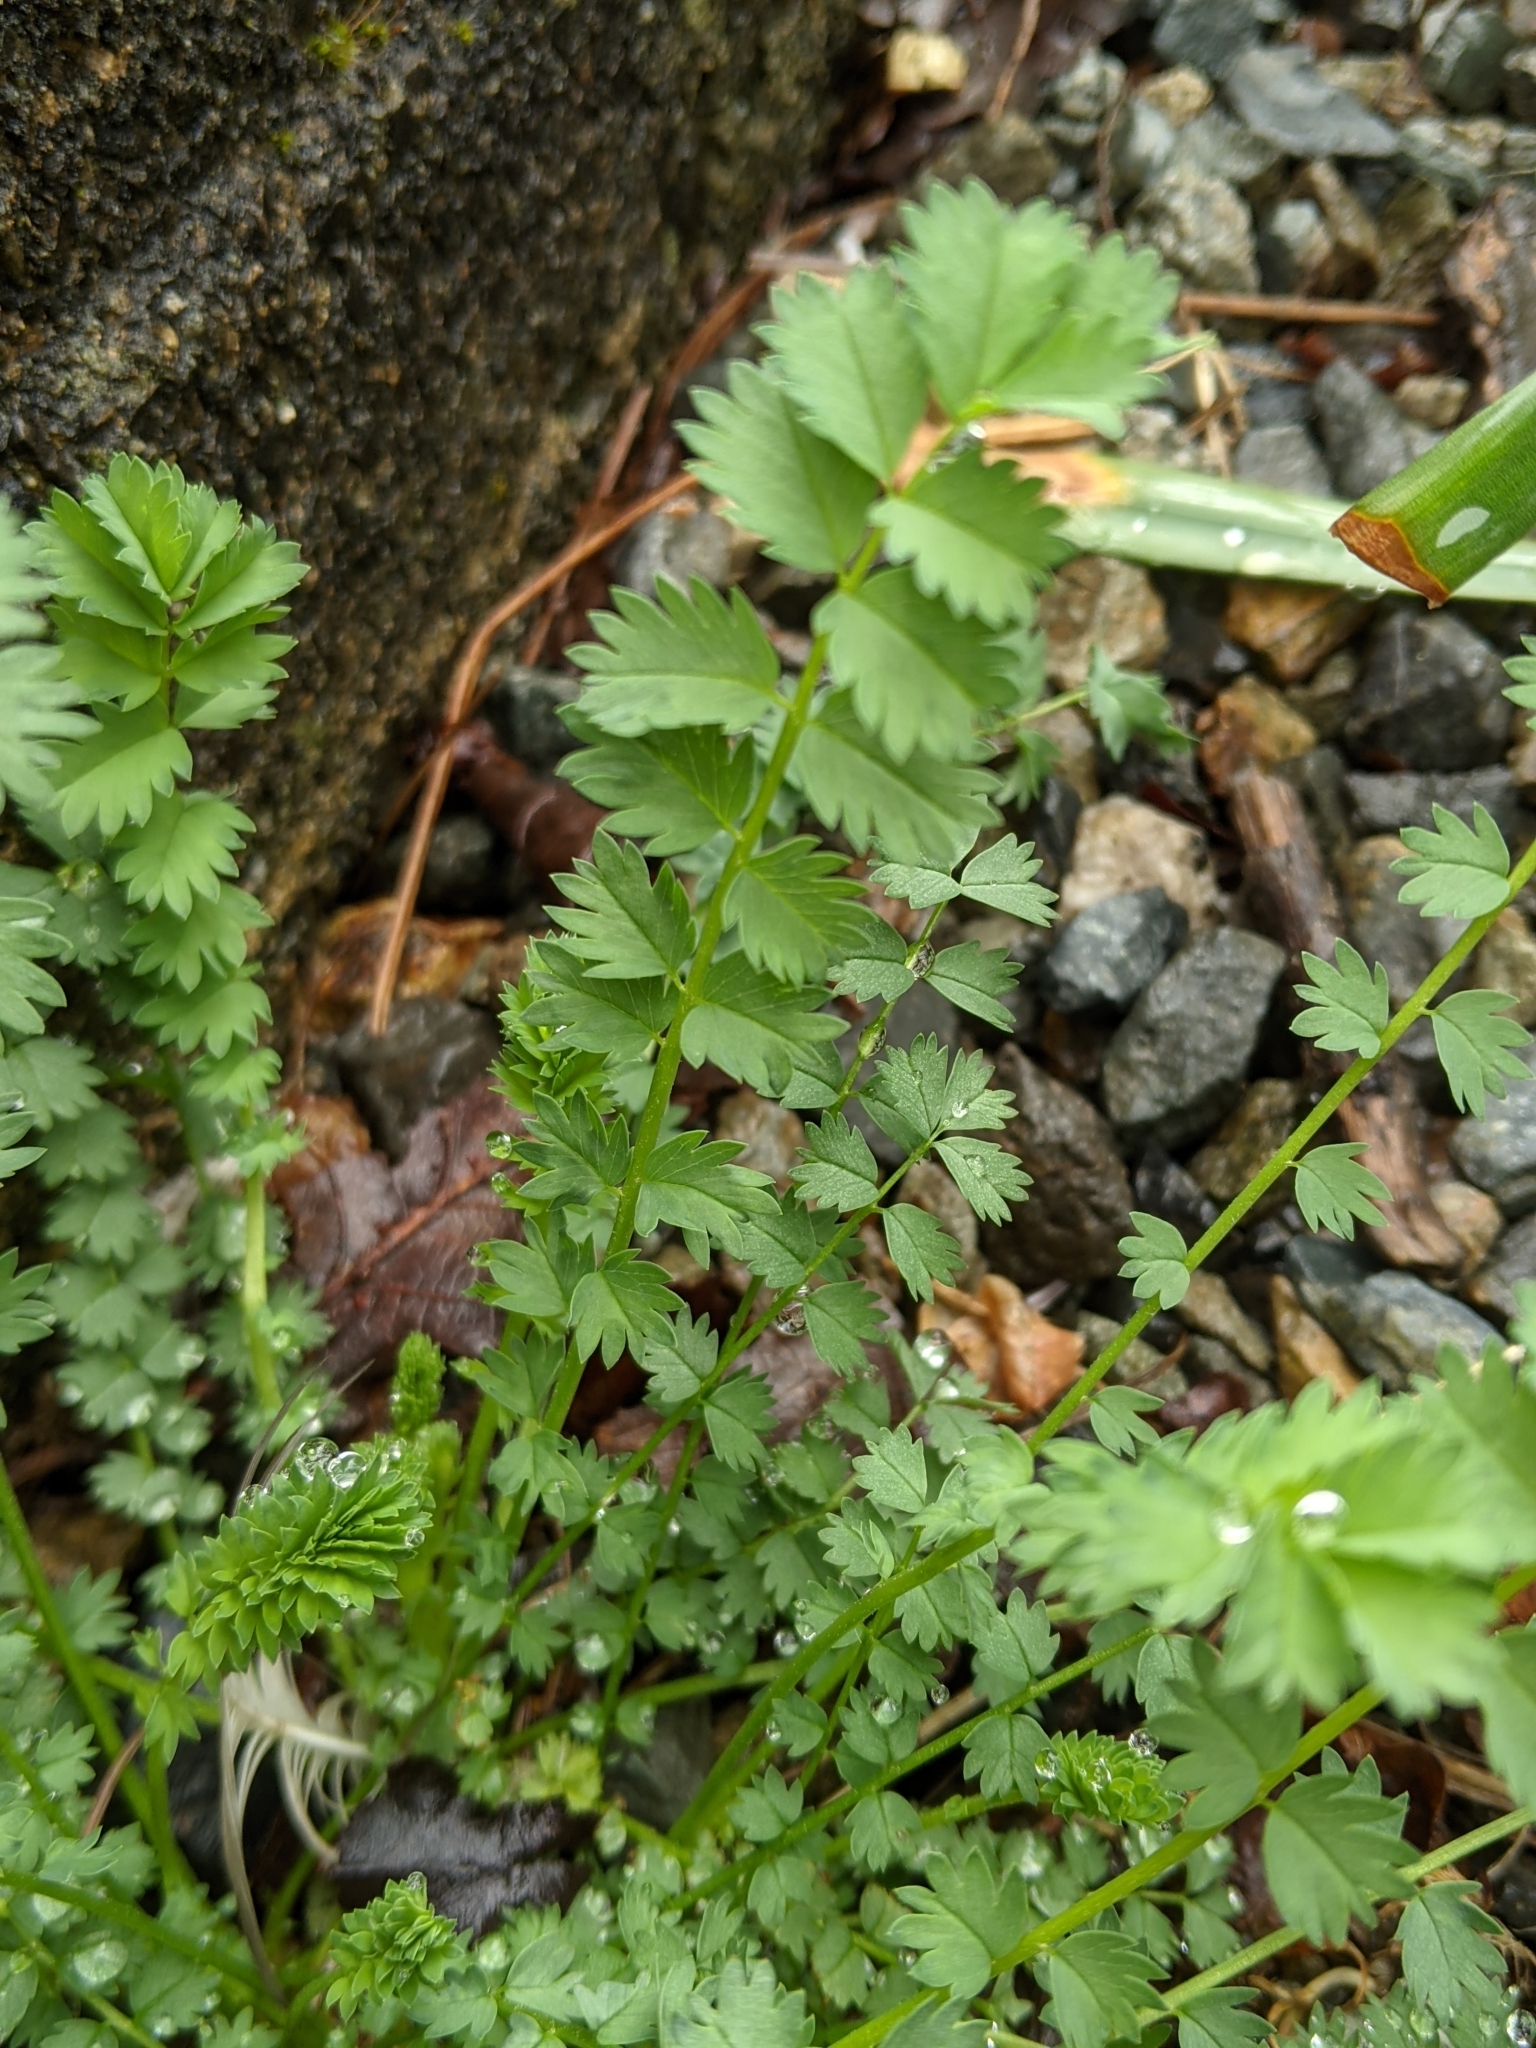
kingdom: Plantae
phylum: Tracheophyta
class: Magnoliopsida
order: Rosales
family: Rosaceae
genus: Poterium
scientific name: Poterium sanguisorba
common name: Salad burnet
